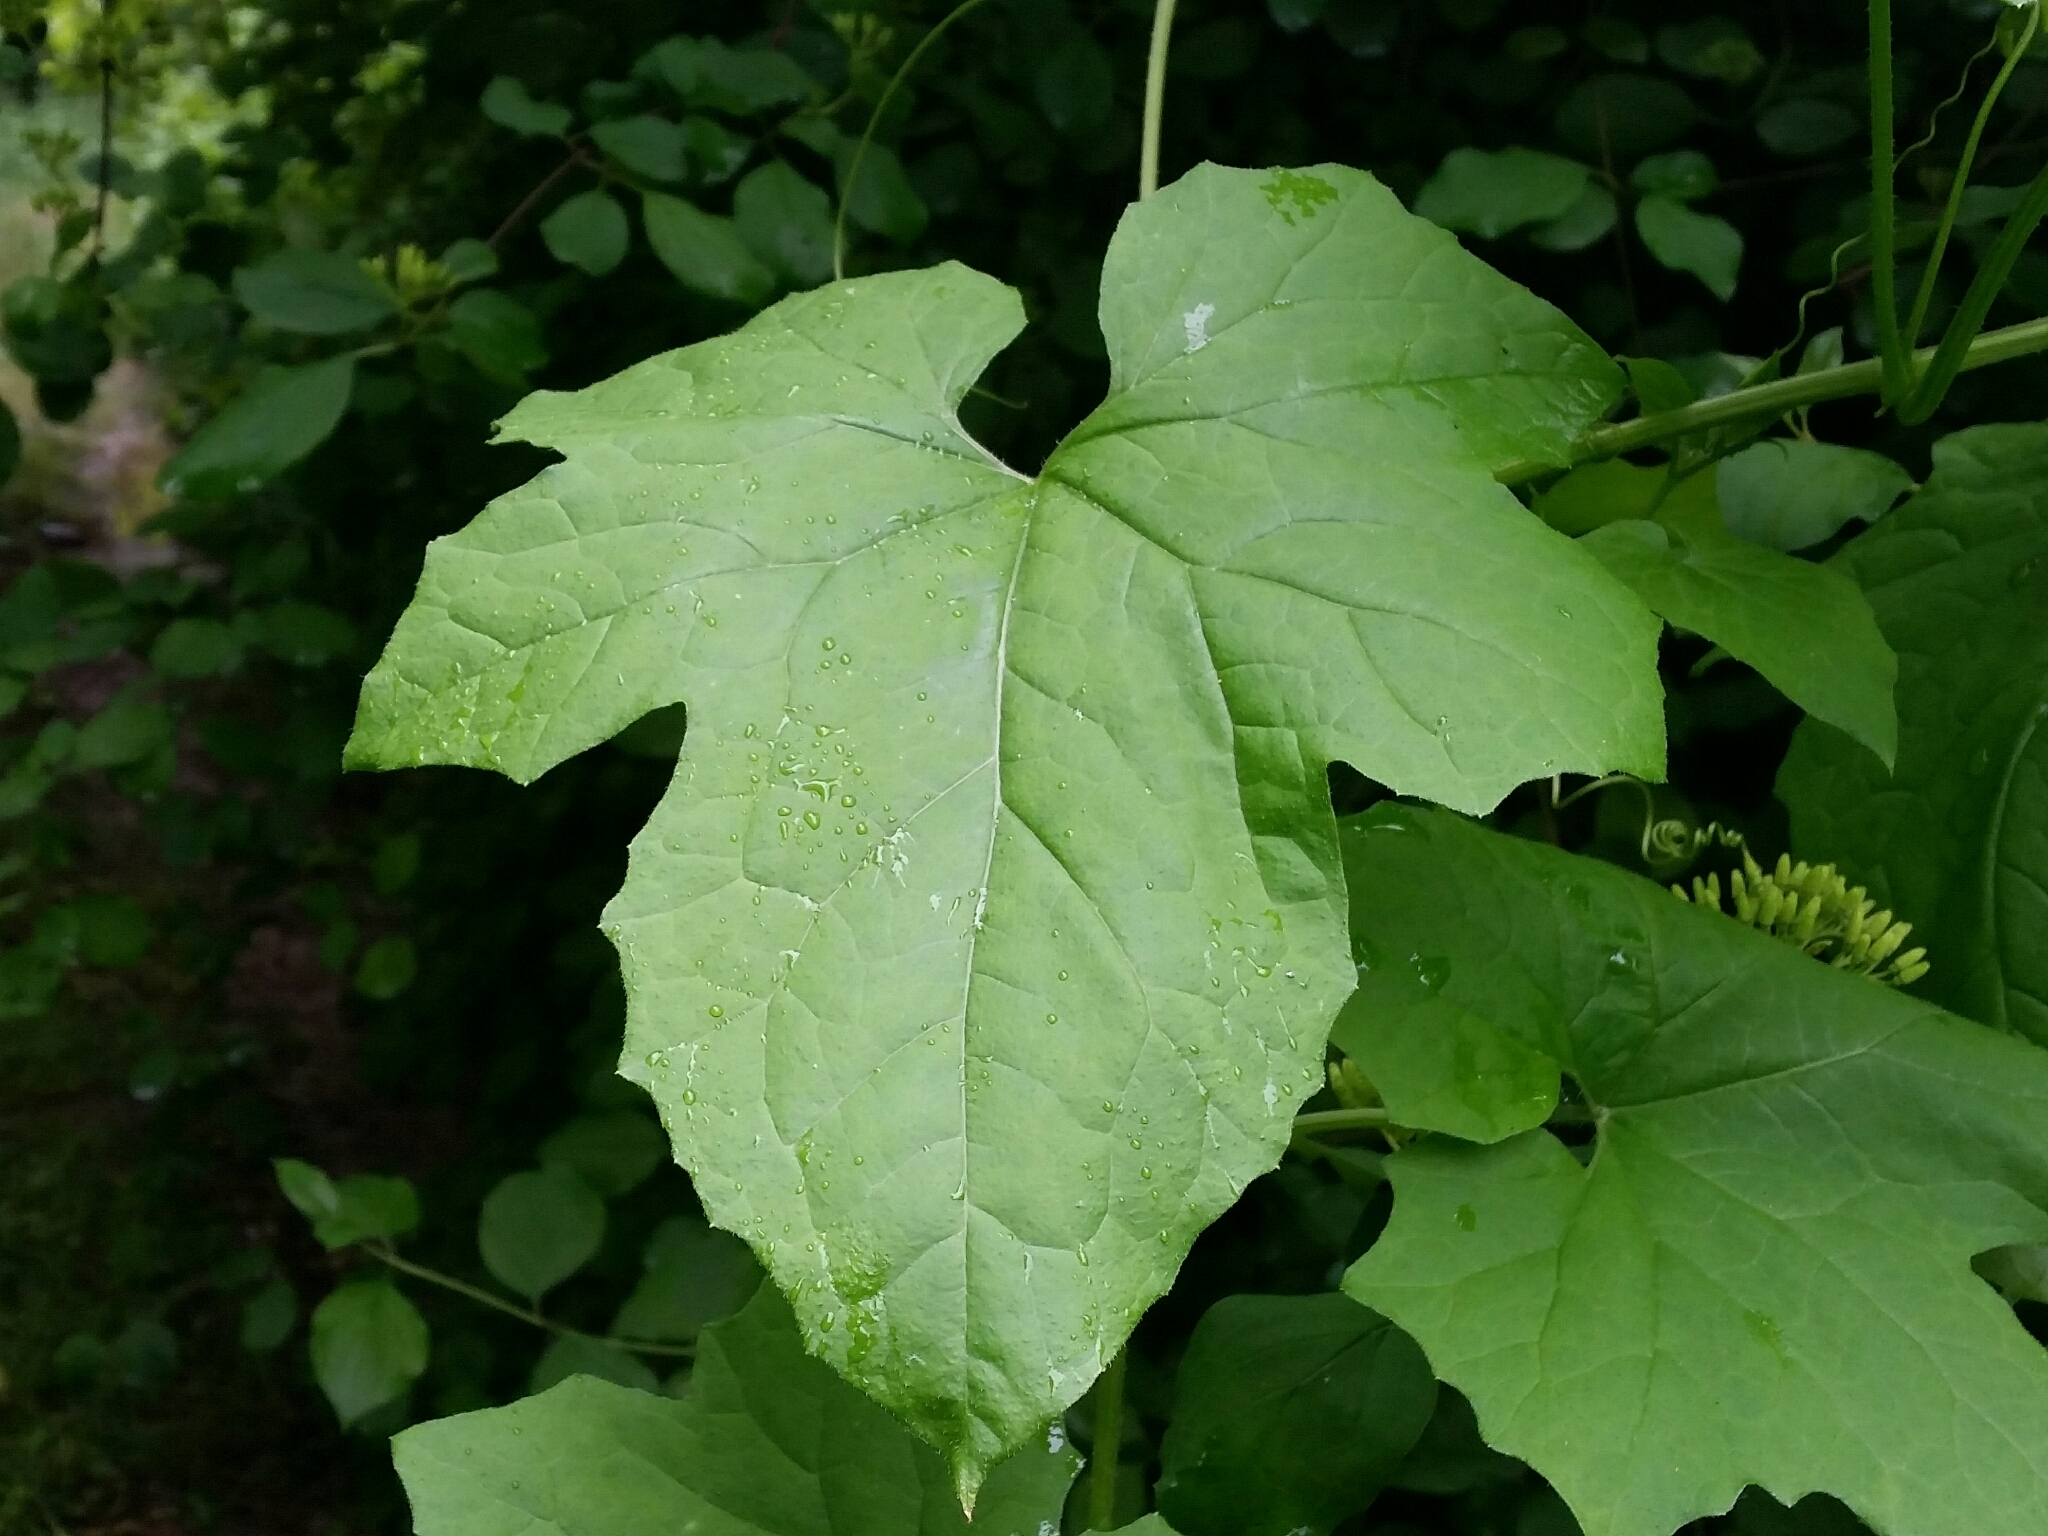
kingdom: Plantae
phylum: Tracheophyta
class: Magnoliopsida
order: Cucurbitales
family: Cucurbitaceae
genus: Bryonia
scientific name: Bryonia dioica
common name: White bryony
